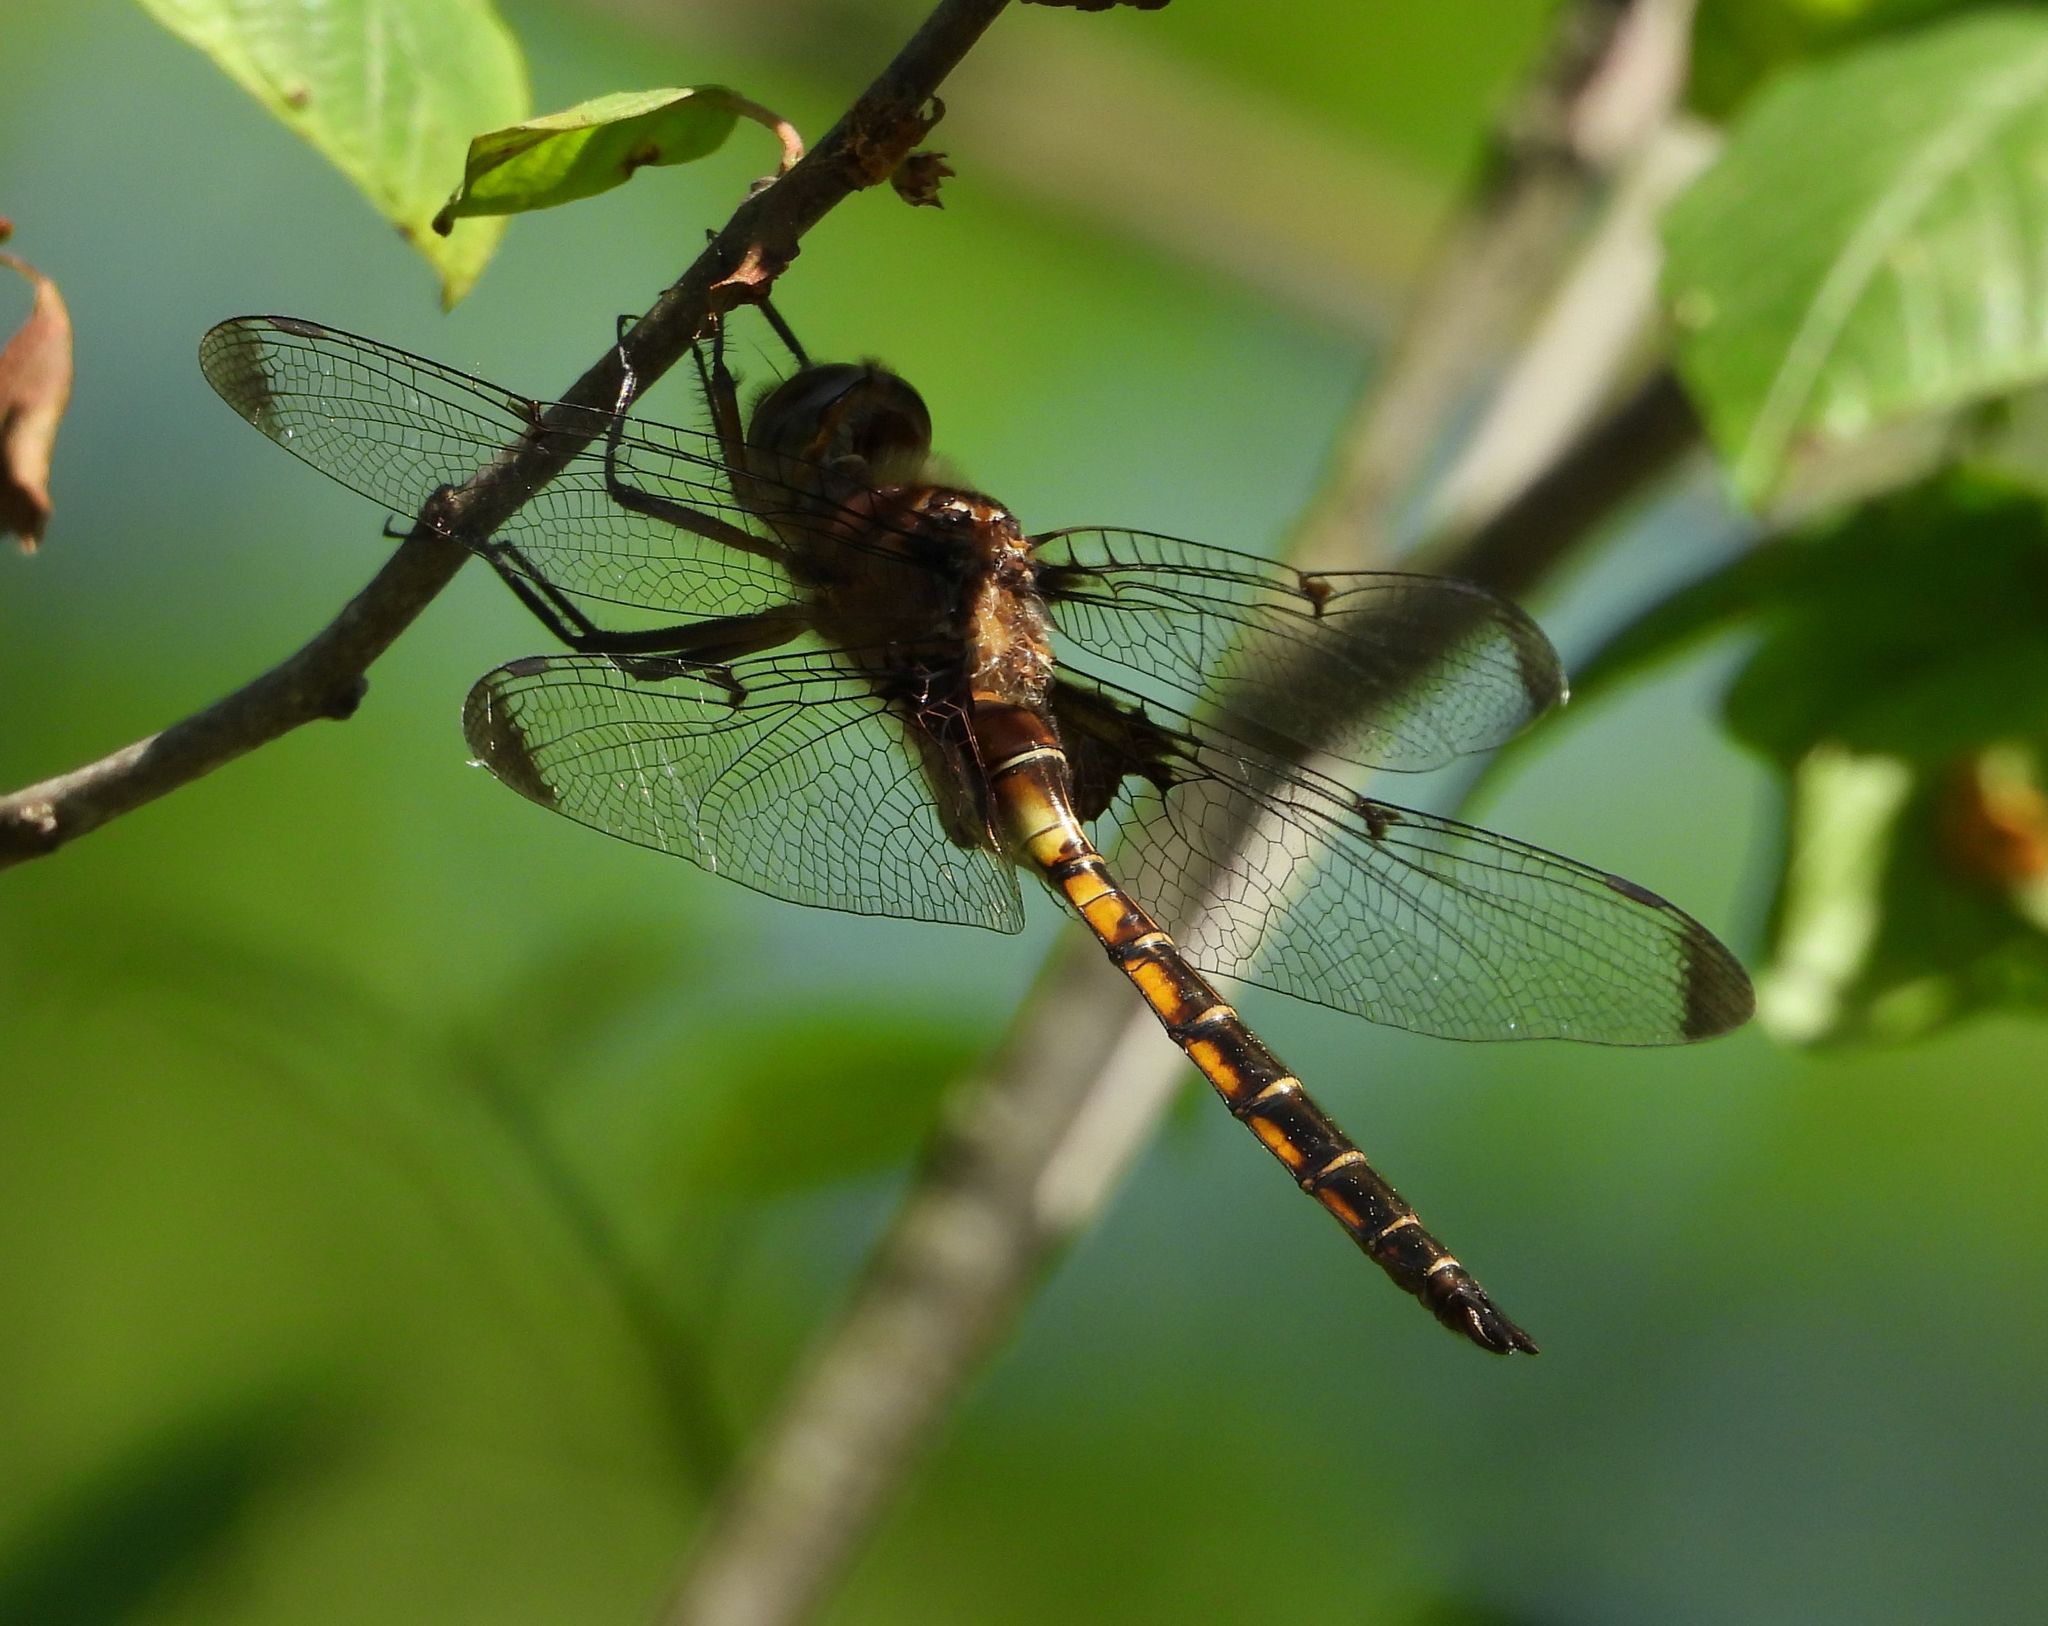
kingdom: Animalia
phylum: Arthropoda
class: Insecta
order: Odonata
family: Corduliidae
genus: Epitheca
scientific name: Epitheca princeps
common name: Prince baskettail
